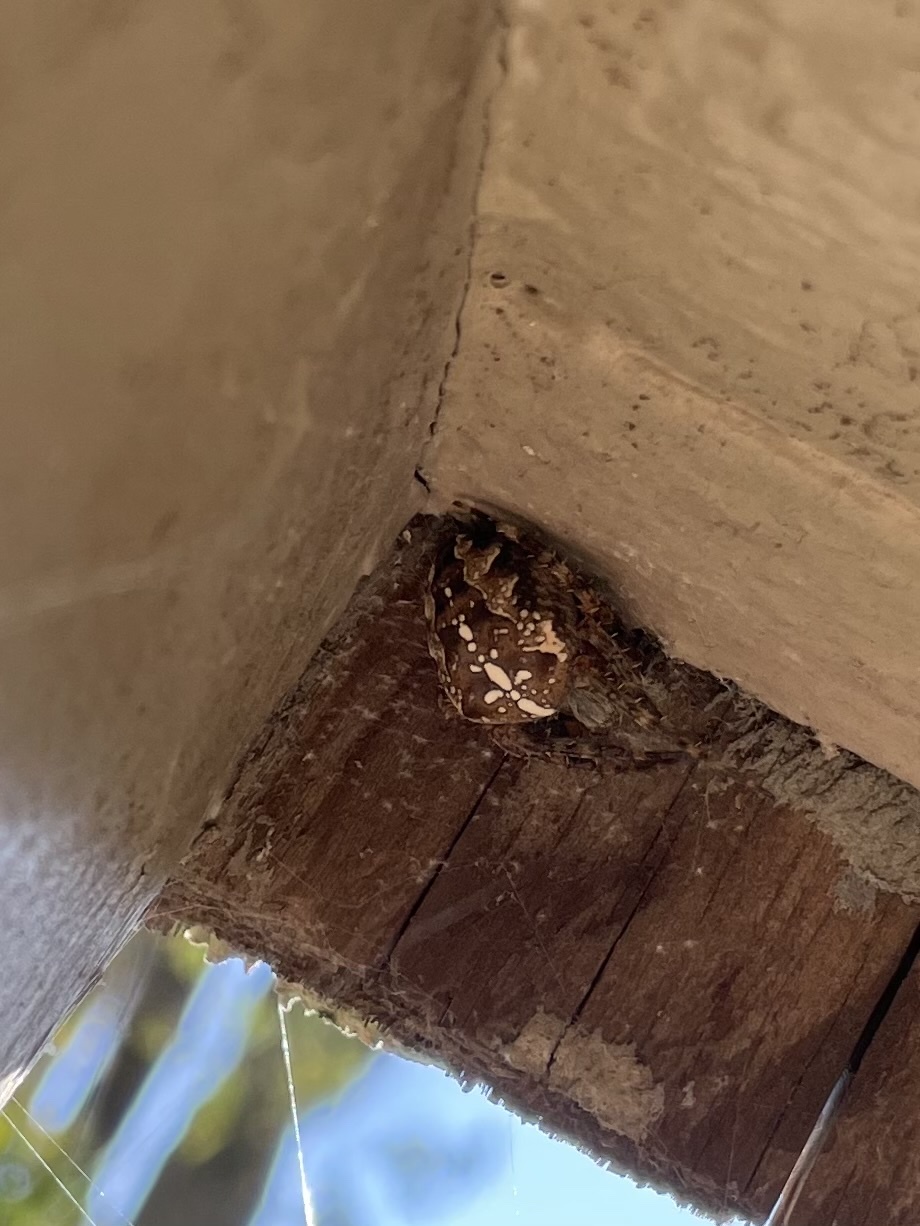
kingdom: Animalia
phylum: Arthropoda
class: Arachnida
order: Araneae
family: Araneidae
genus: Araneus
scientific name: Araneus diadematus
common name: Cross orbweaver
